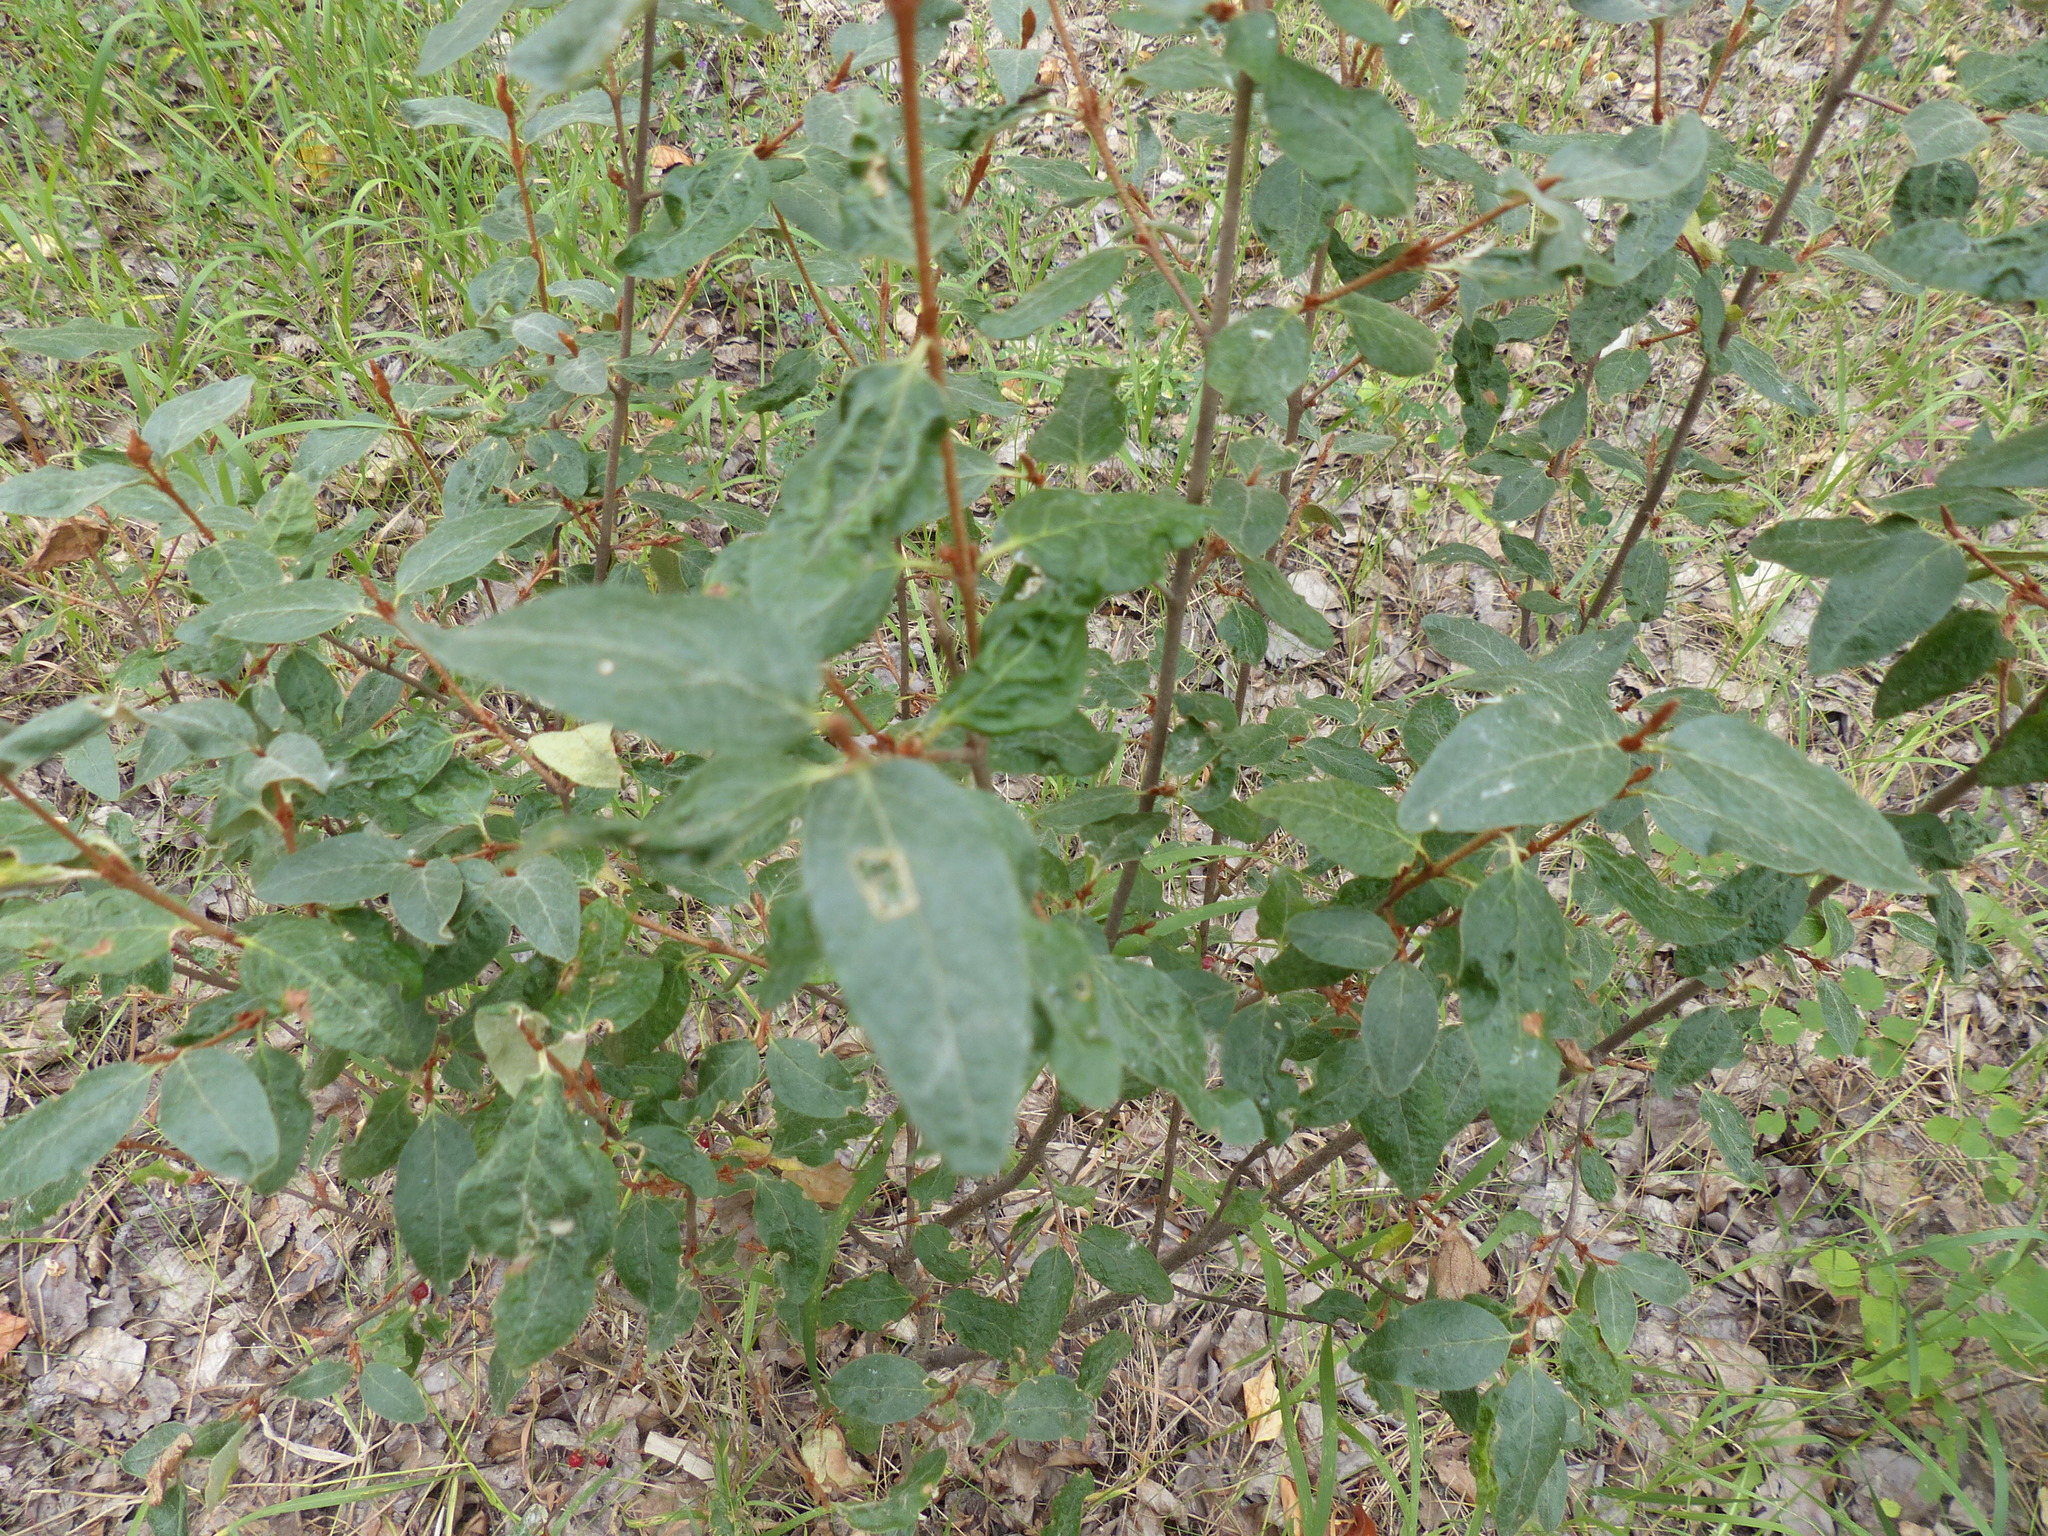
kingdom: Plantae
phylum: Tracheophyta
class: Magnoliopsida
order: Rosales
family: Elaeagnaceae
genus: Shepherdia
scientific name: Shepherdia canadensis
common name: Soapberry
